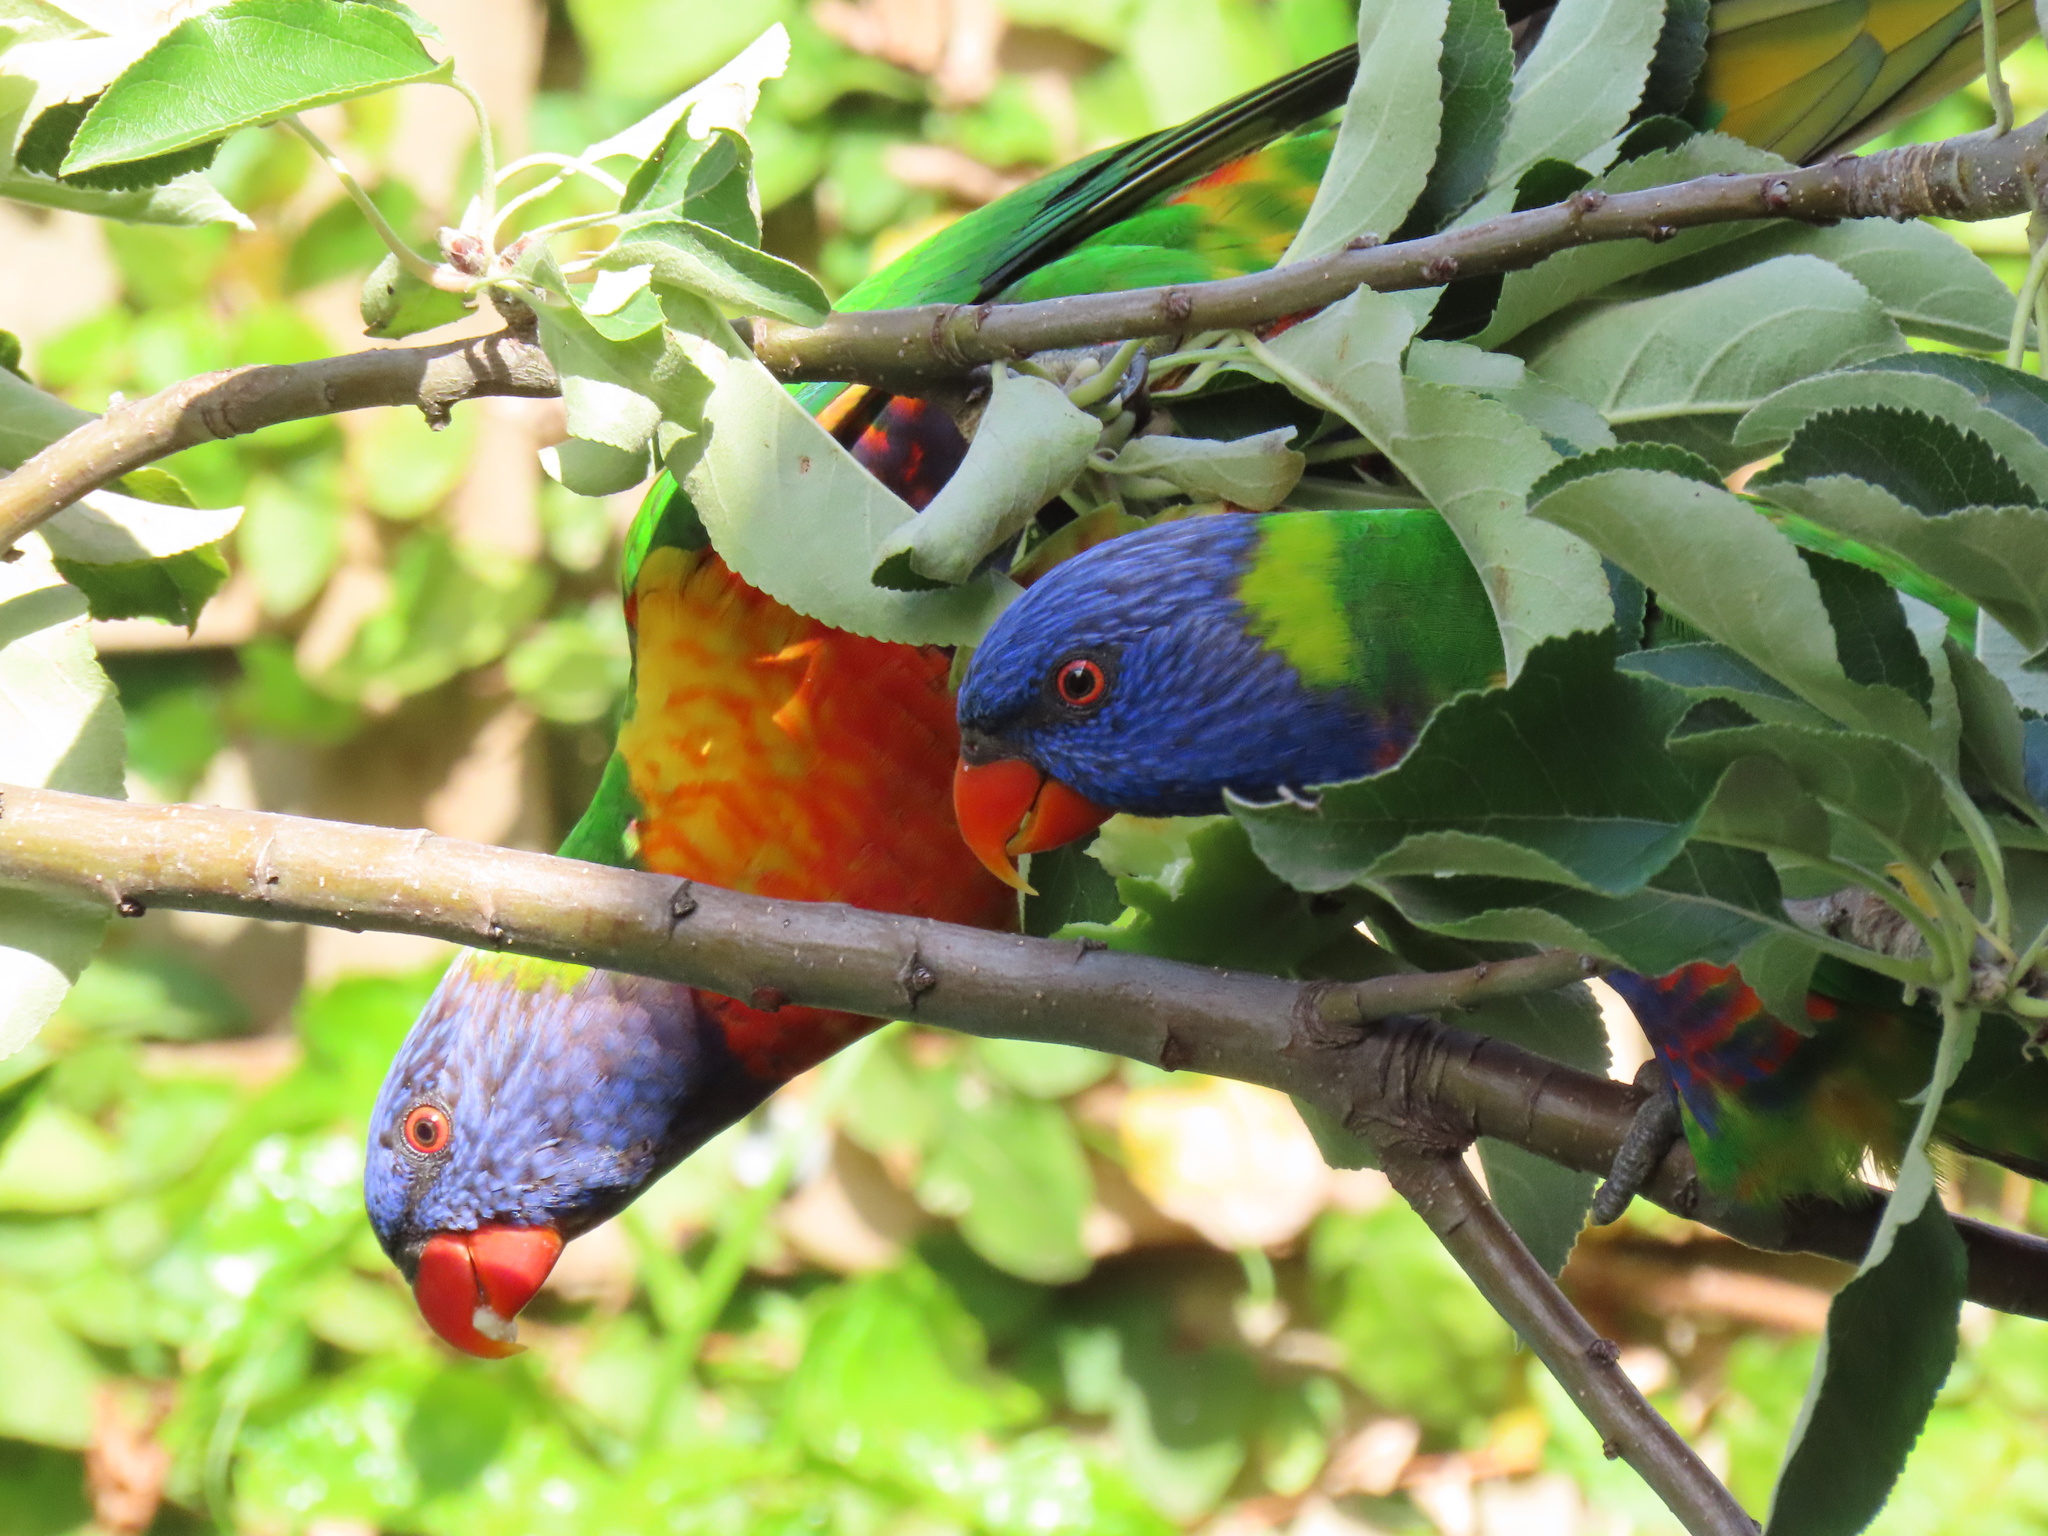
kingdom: Animalia
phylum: Chordata
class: Aves
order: Psittaciformes
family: Psittacidae
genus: Trichoglossus
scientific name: Trichoglossus haematodus
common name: Coconut lorikeet
